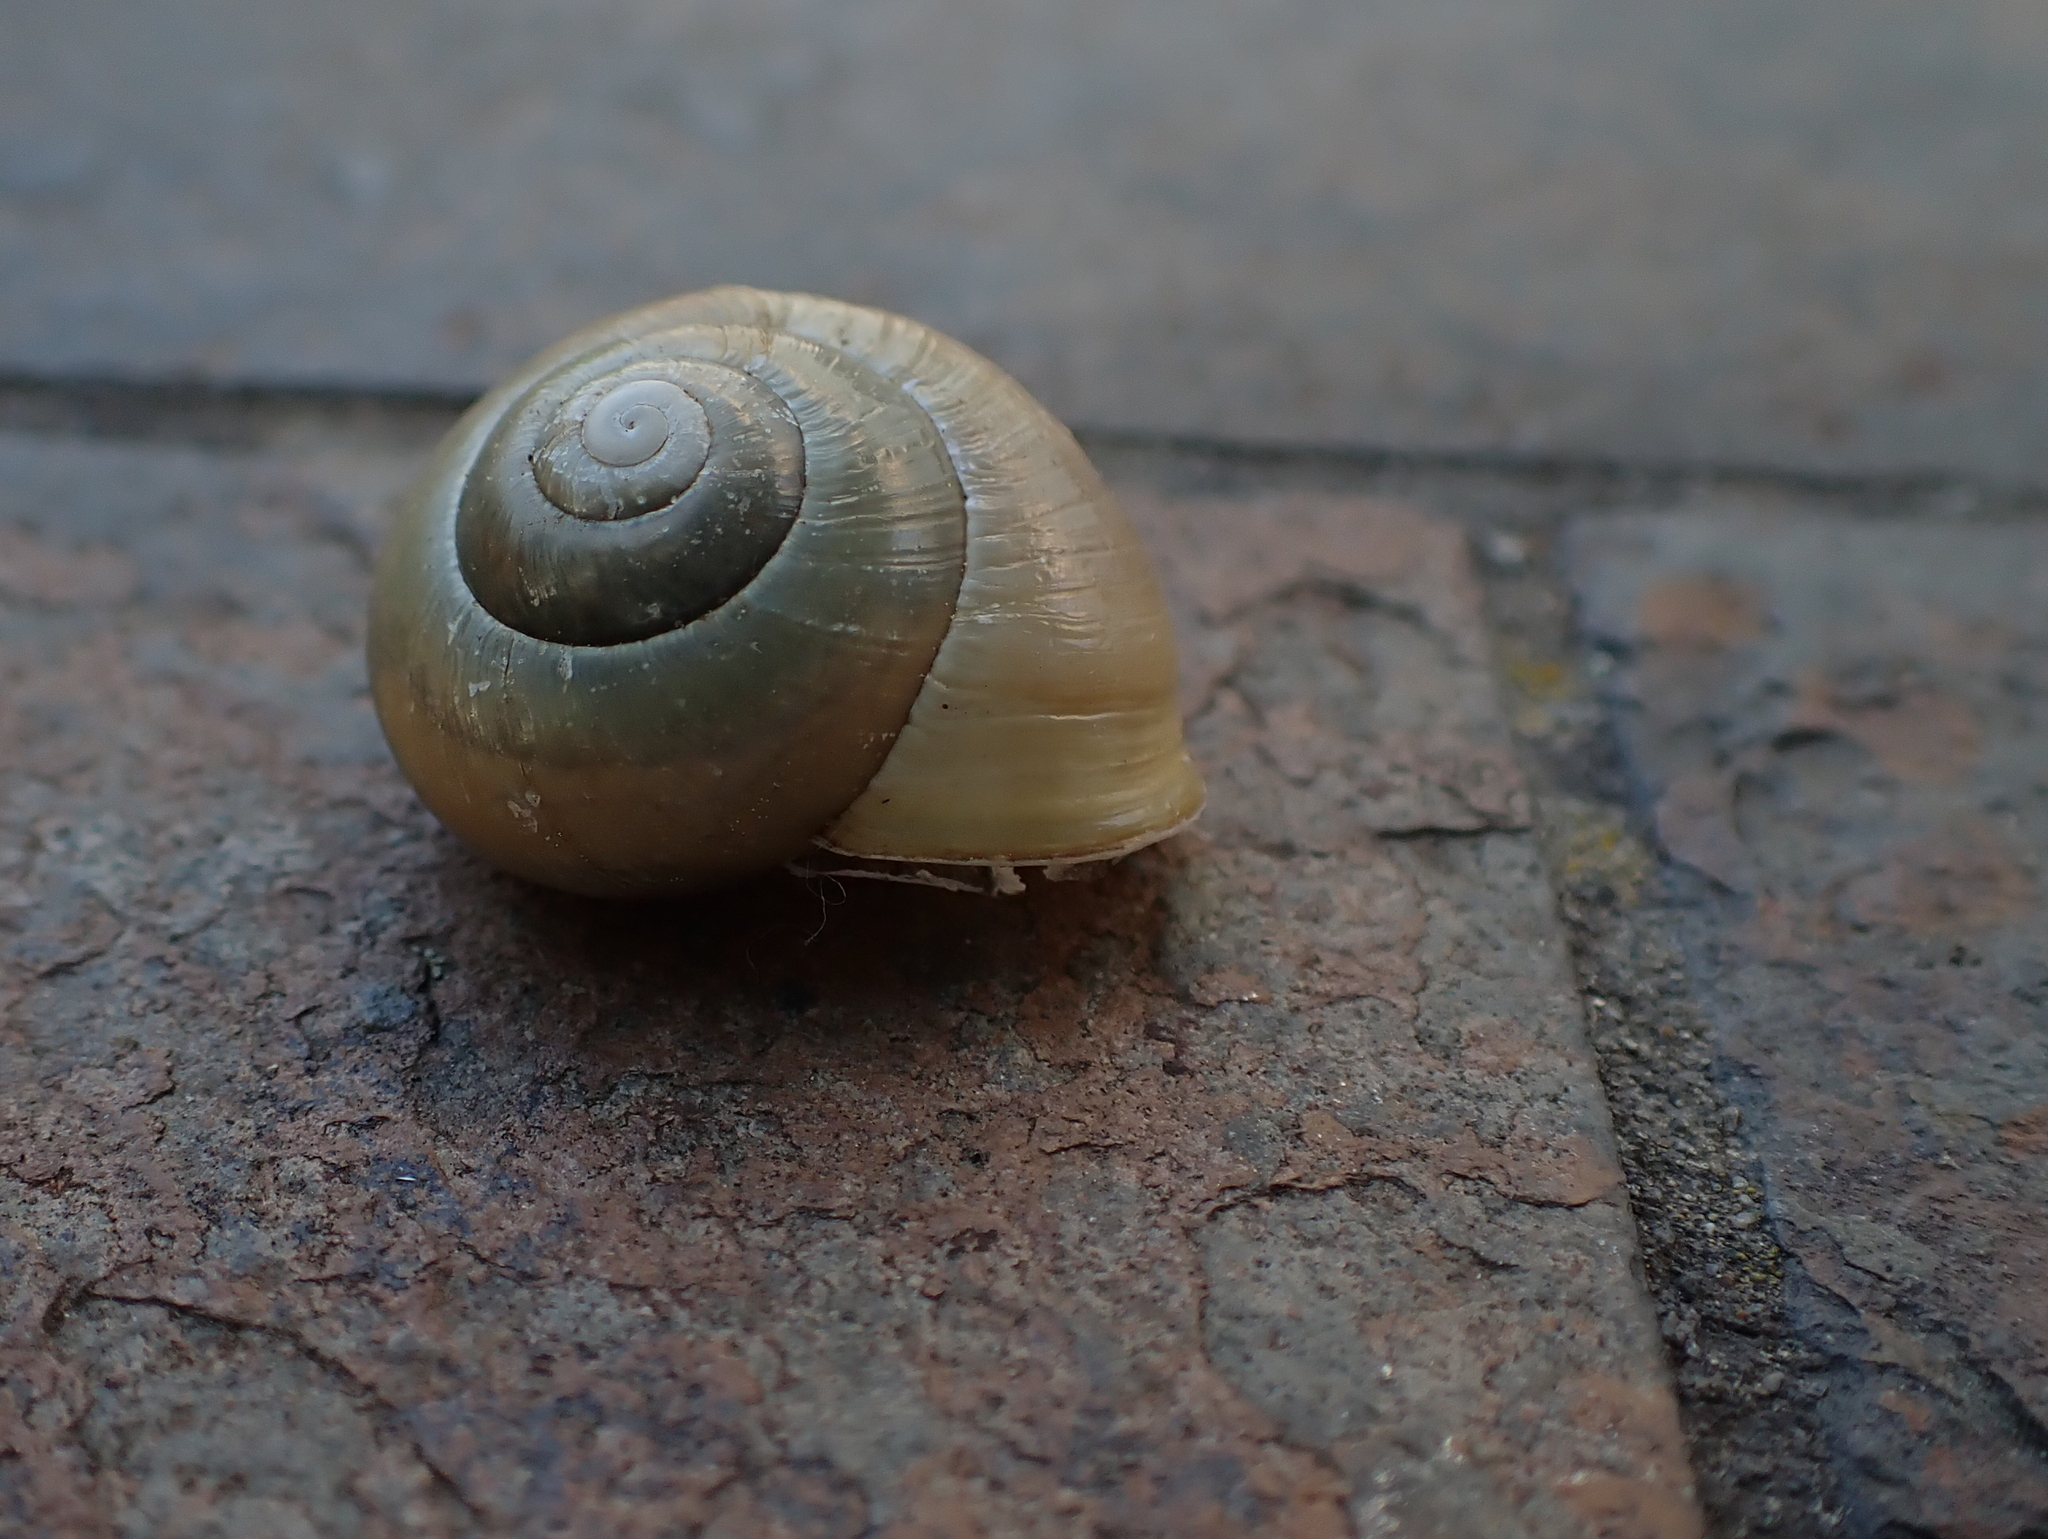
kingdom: Animalia
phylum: Mollusca
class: Gastropoda
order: Stylommatophora
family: Helicidae
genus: Cepaea
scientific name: Cepaea hortensis
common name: White-lip gardensnail
